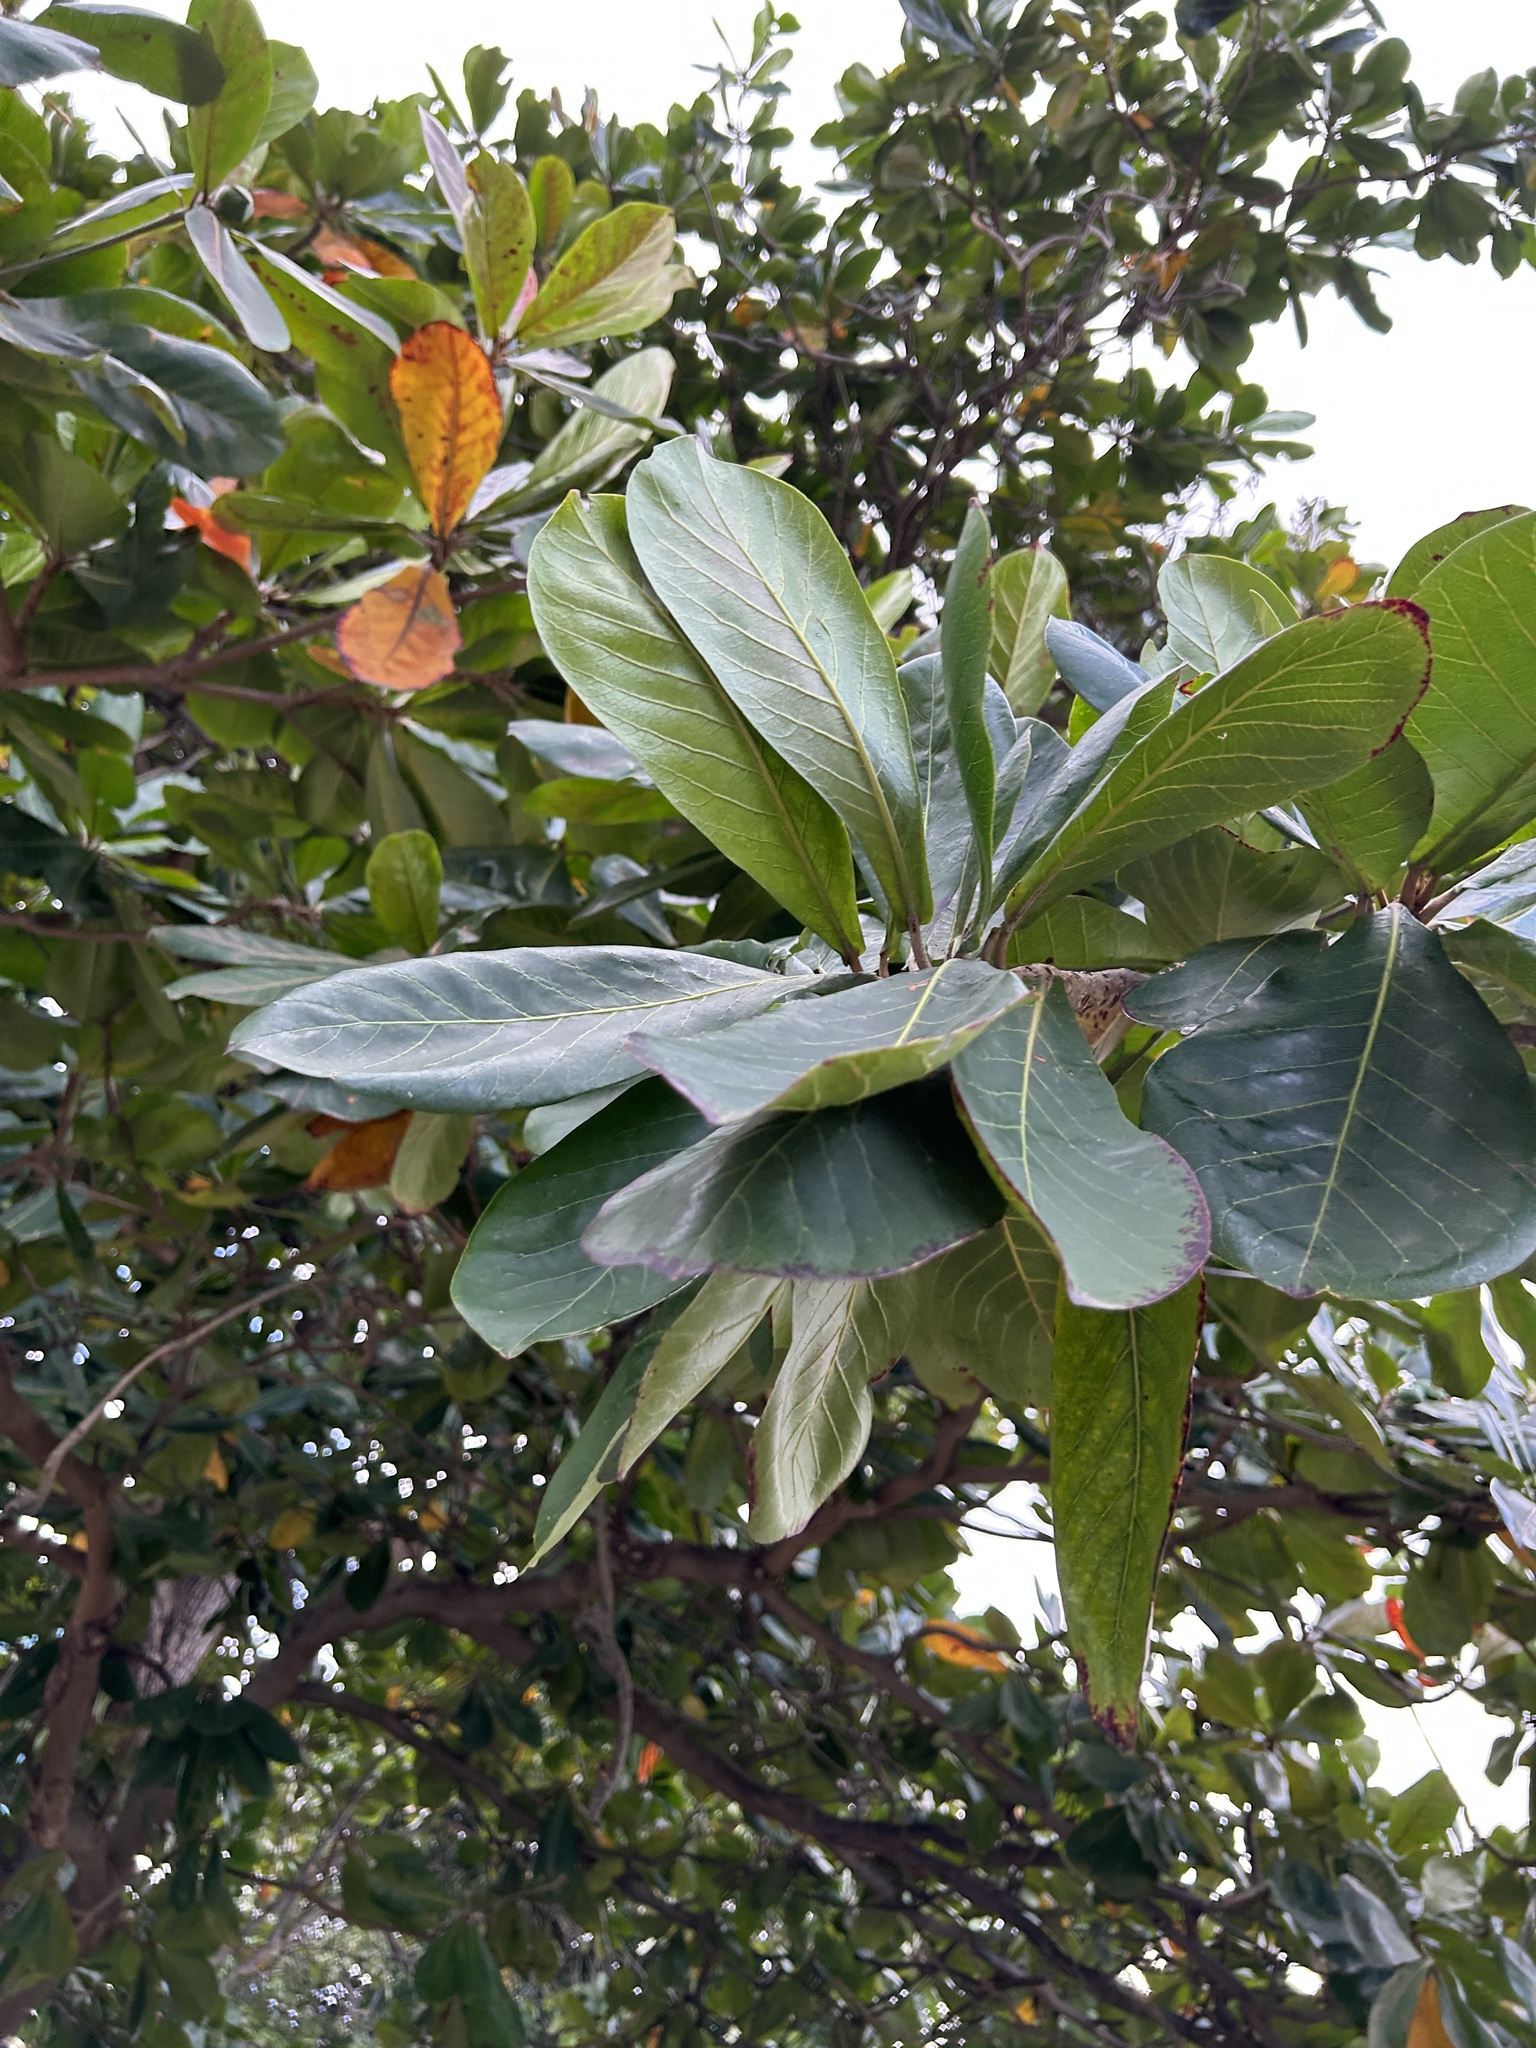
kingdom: Plantae
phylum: Tracheophyta
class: Magnoliopsida
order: Myrtales
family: Combretaceae
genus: Terminalia
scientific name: Terminalia catappa
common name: Tropical almond
